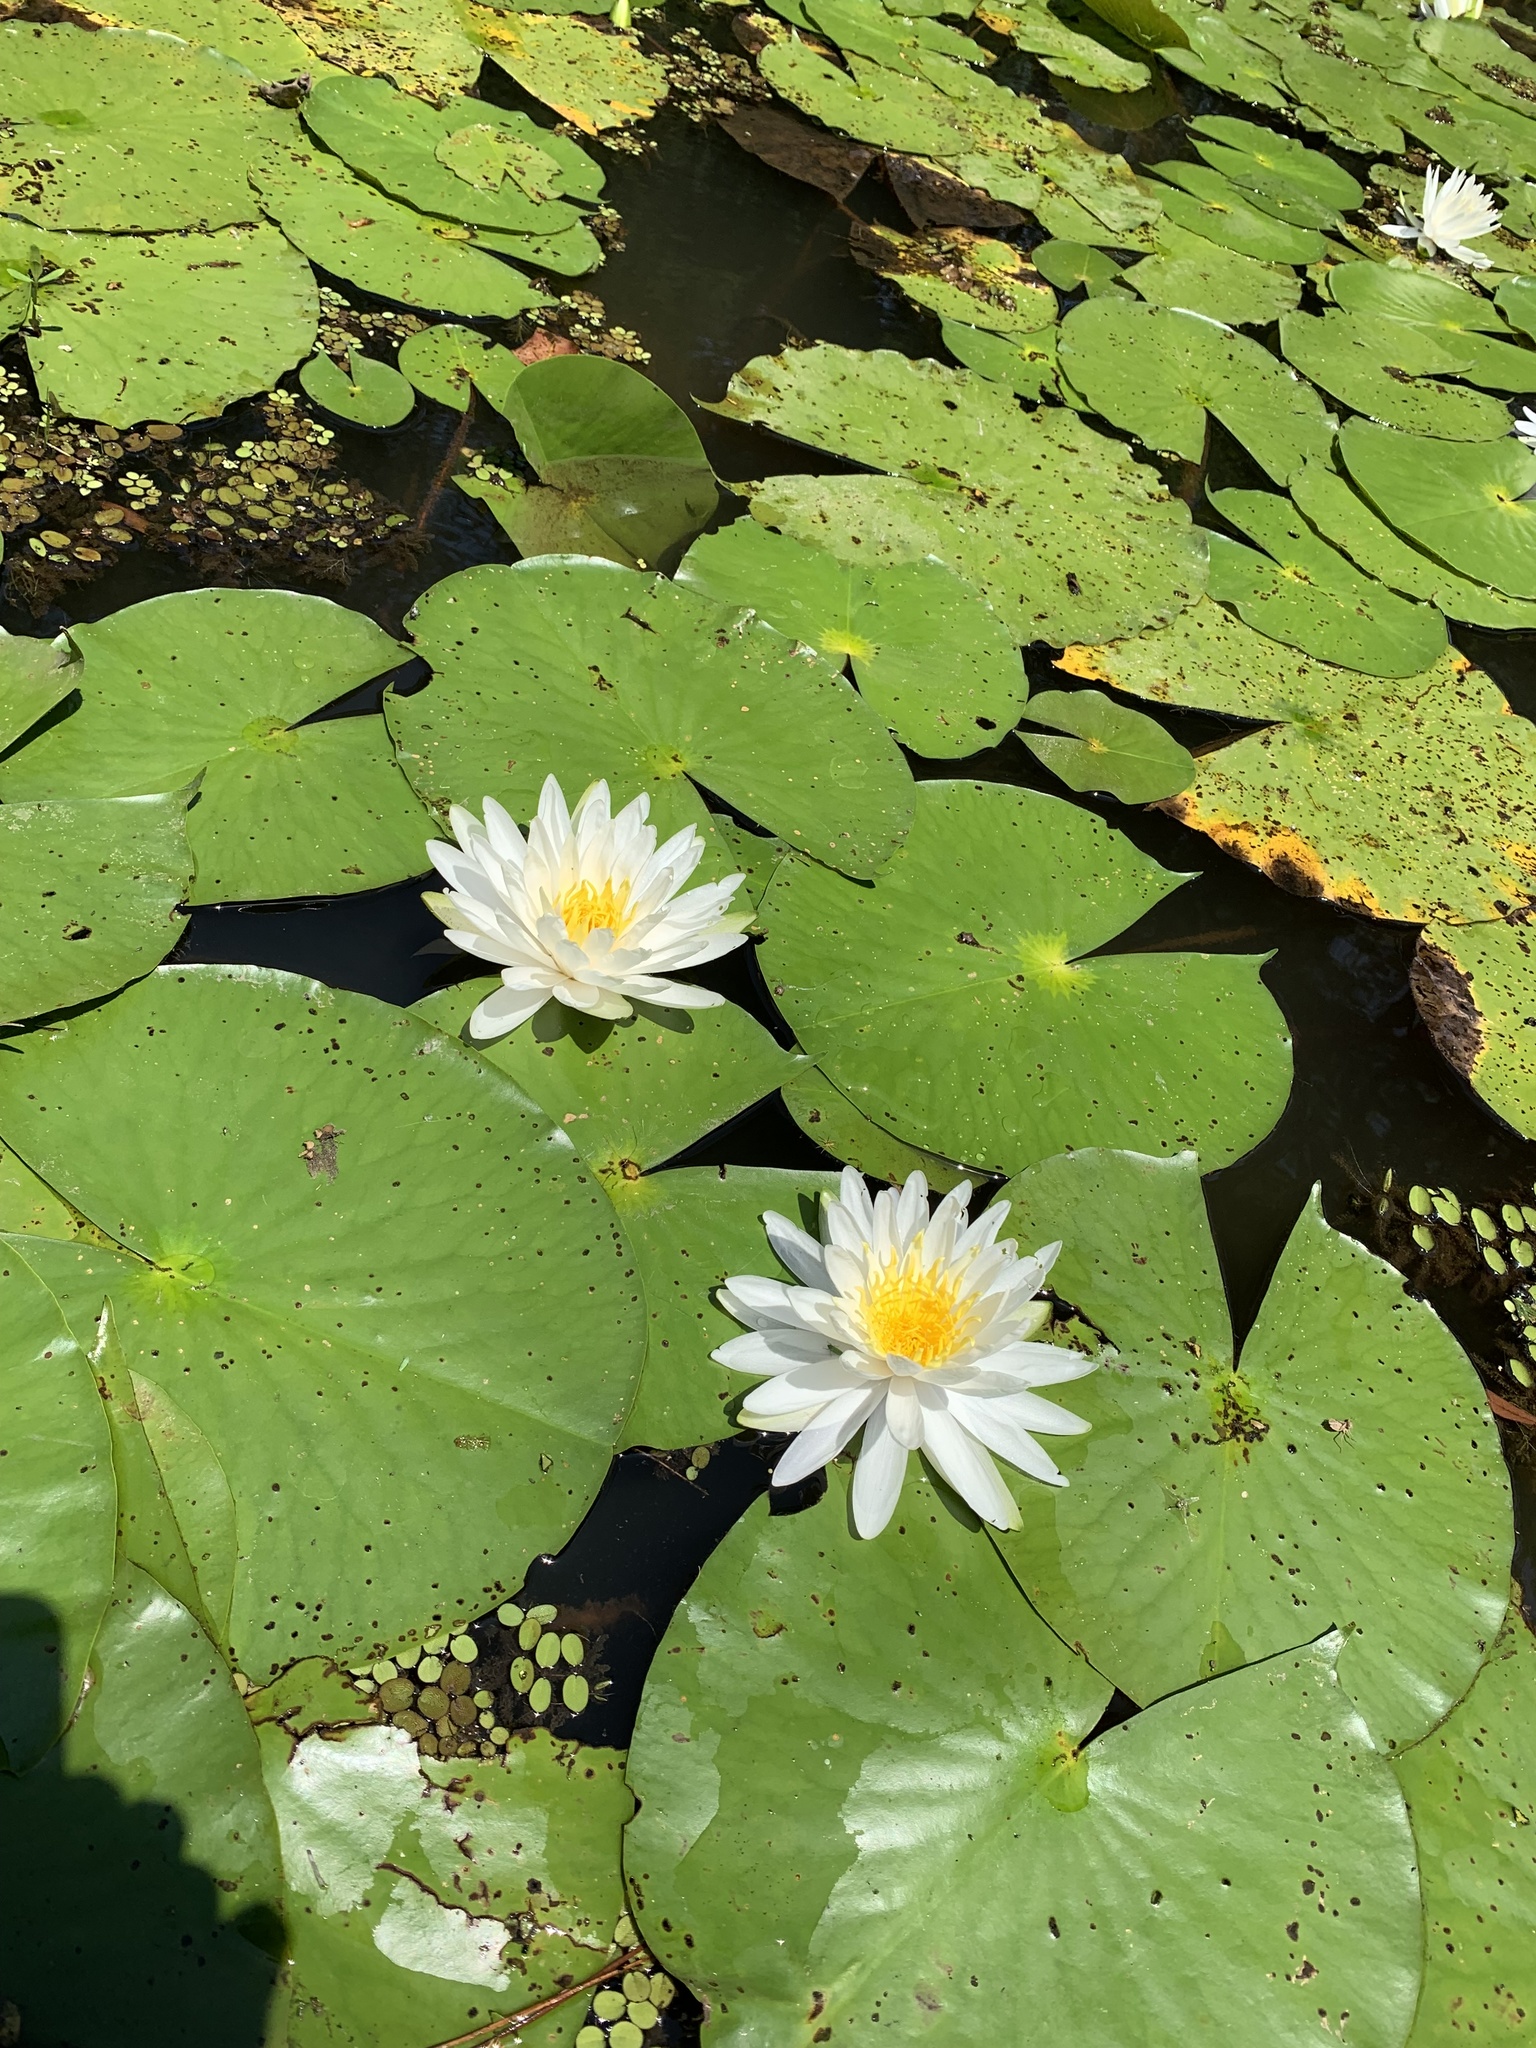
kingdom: Plantae
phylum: Tracheophyta
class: Magnoliopsida
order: Nymphaeales
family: Nymphaeaceae
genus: Nymphaea
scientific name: Nymphaea odorata
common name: Fragrant water-lily
